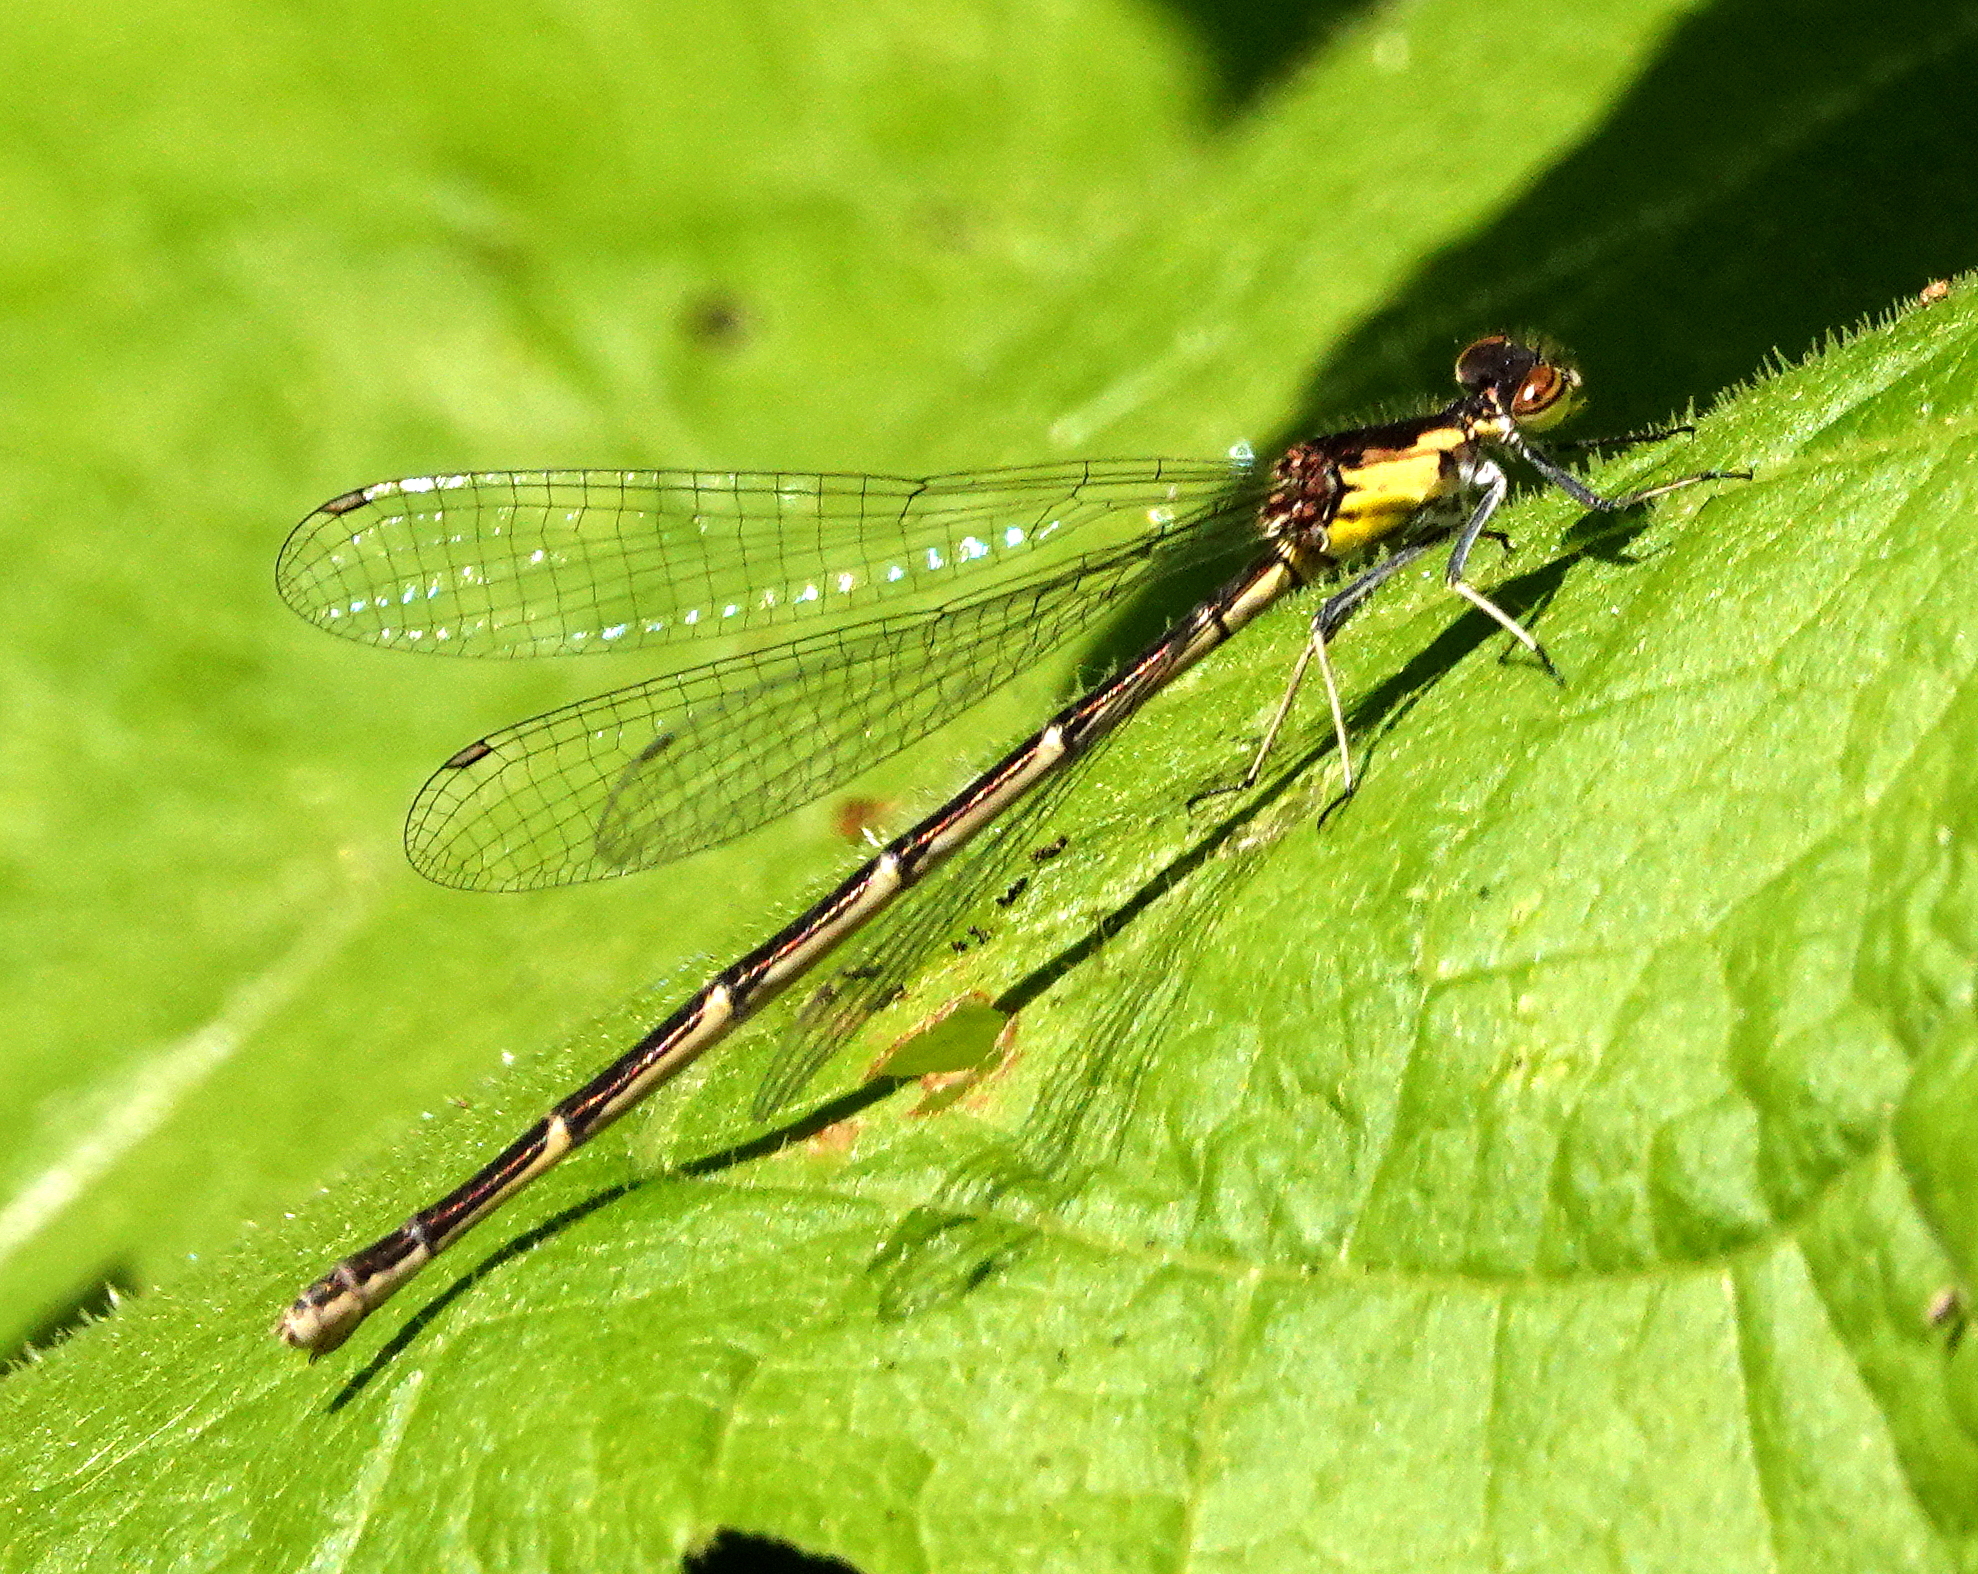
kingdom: Animalia
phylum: Arthropoda
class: Insecta
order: Odonata
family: Coenagrionidae
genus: Chromagrion
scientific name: Chromagrion conditum
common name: Aurora damsel
